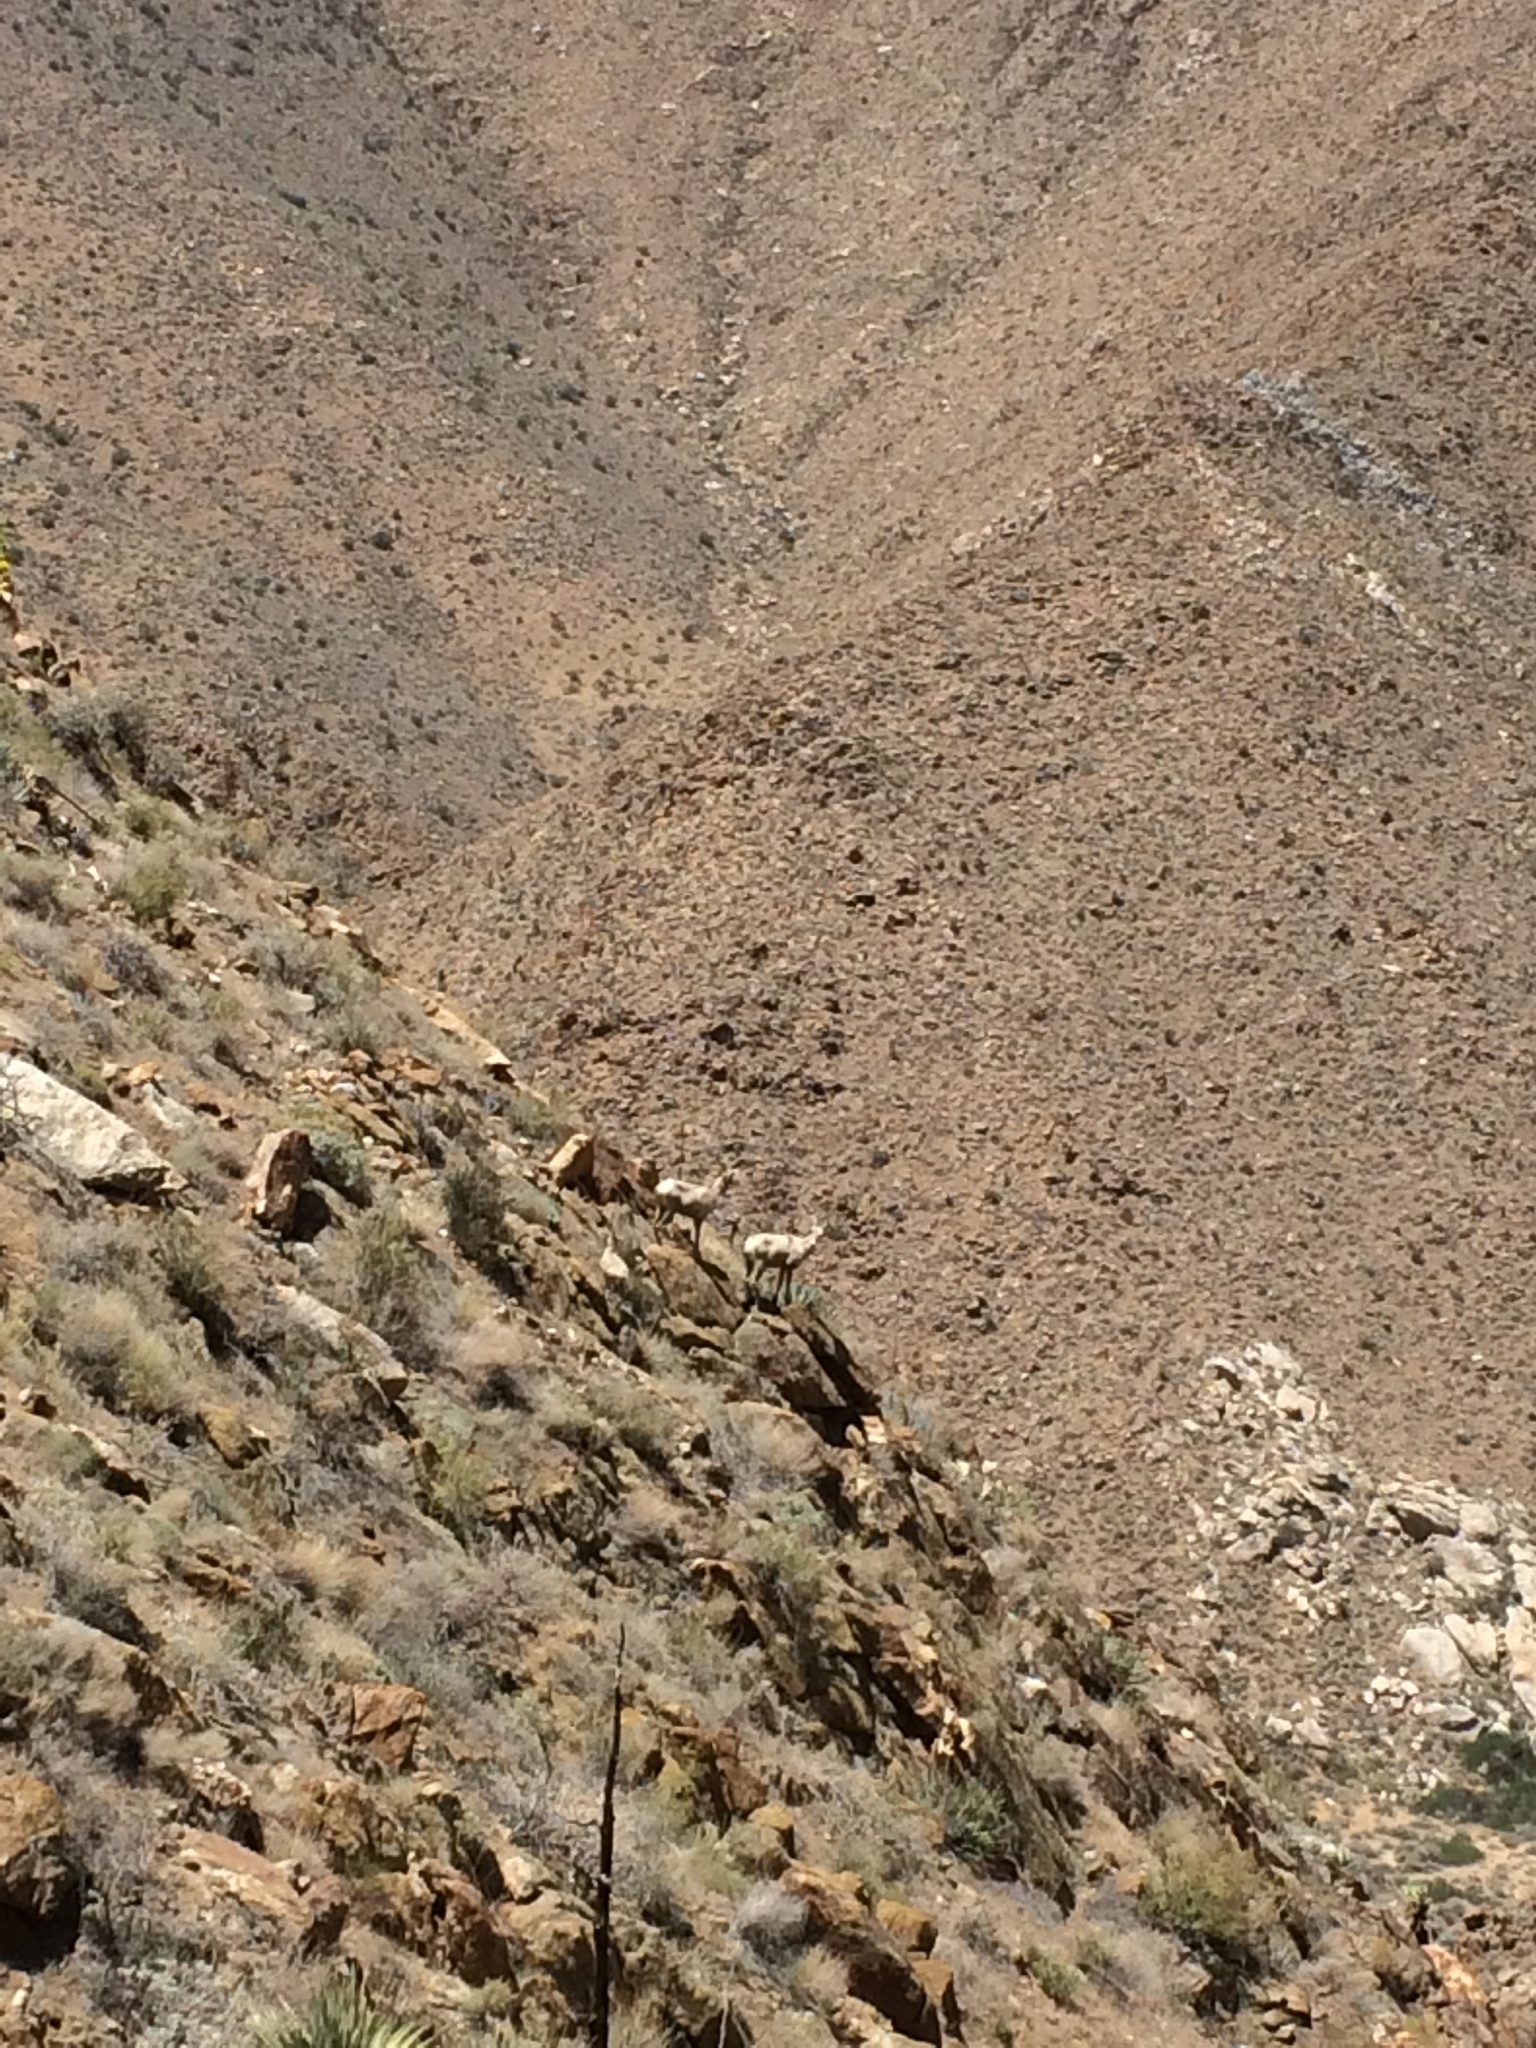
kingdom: Animalia
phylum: Chordata
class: Mammalia
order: Artiodactyla
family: Bovidae
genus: Ovis
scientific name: Ovis canadensis
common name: Bighorn sheep
